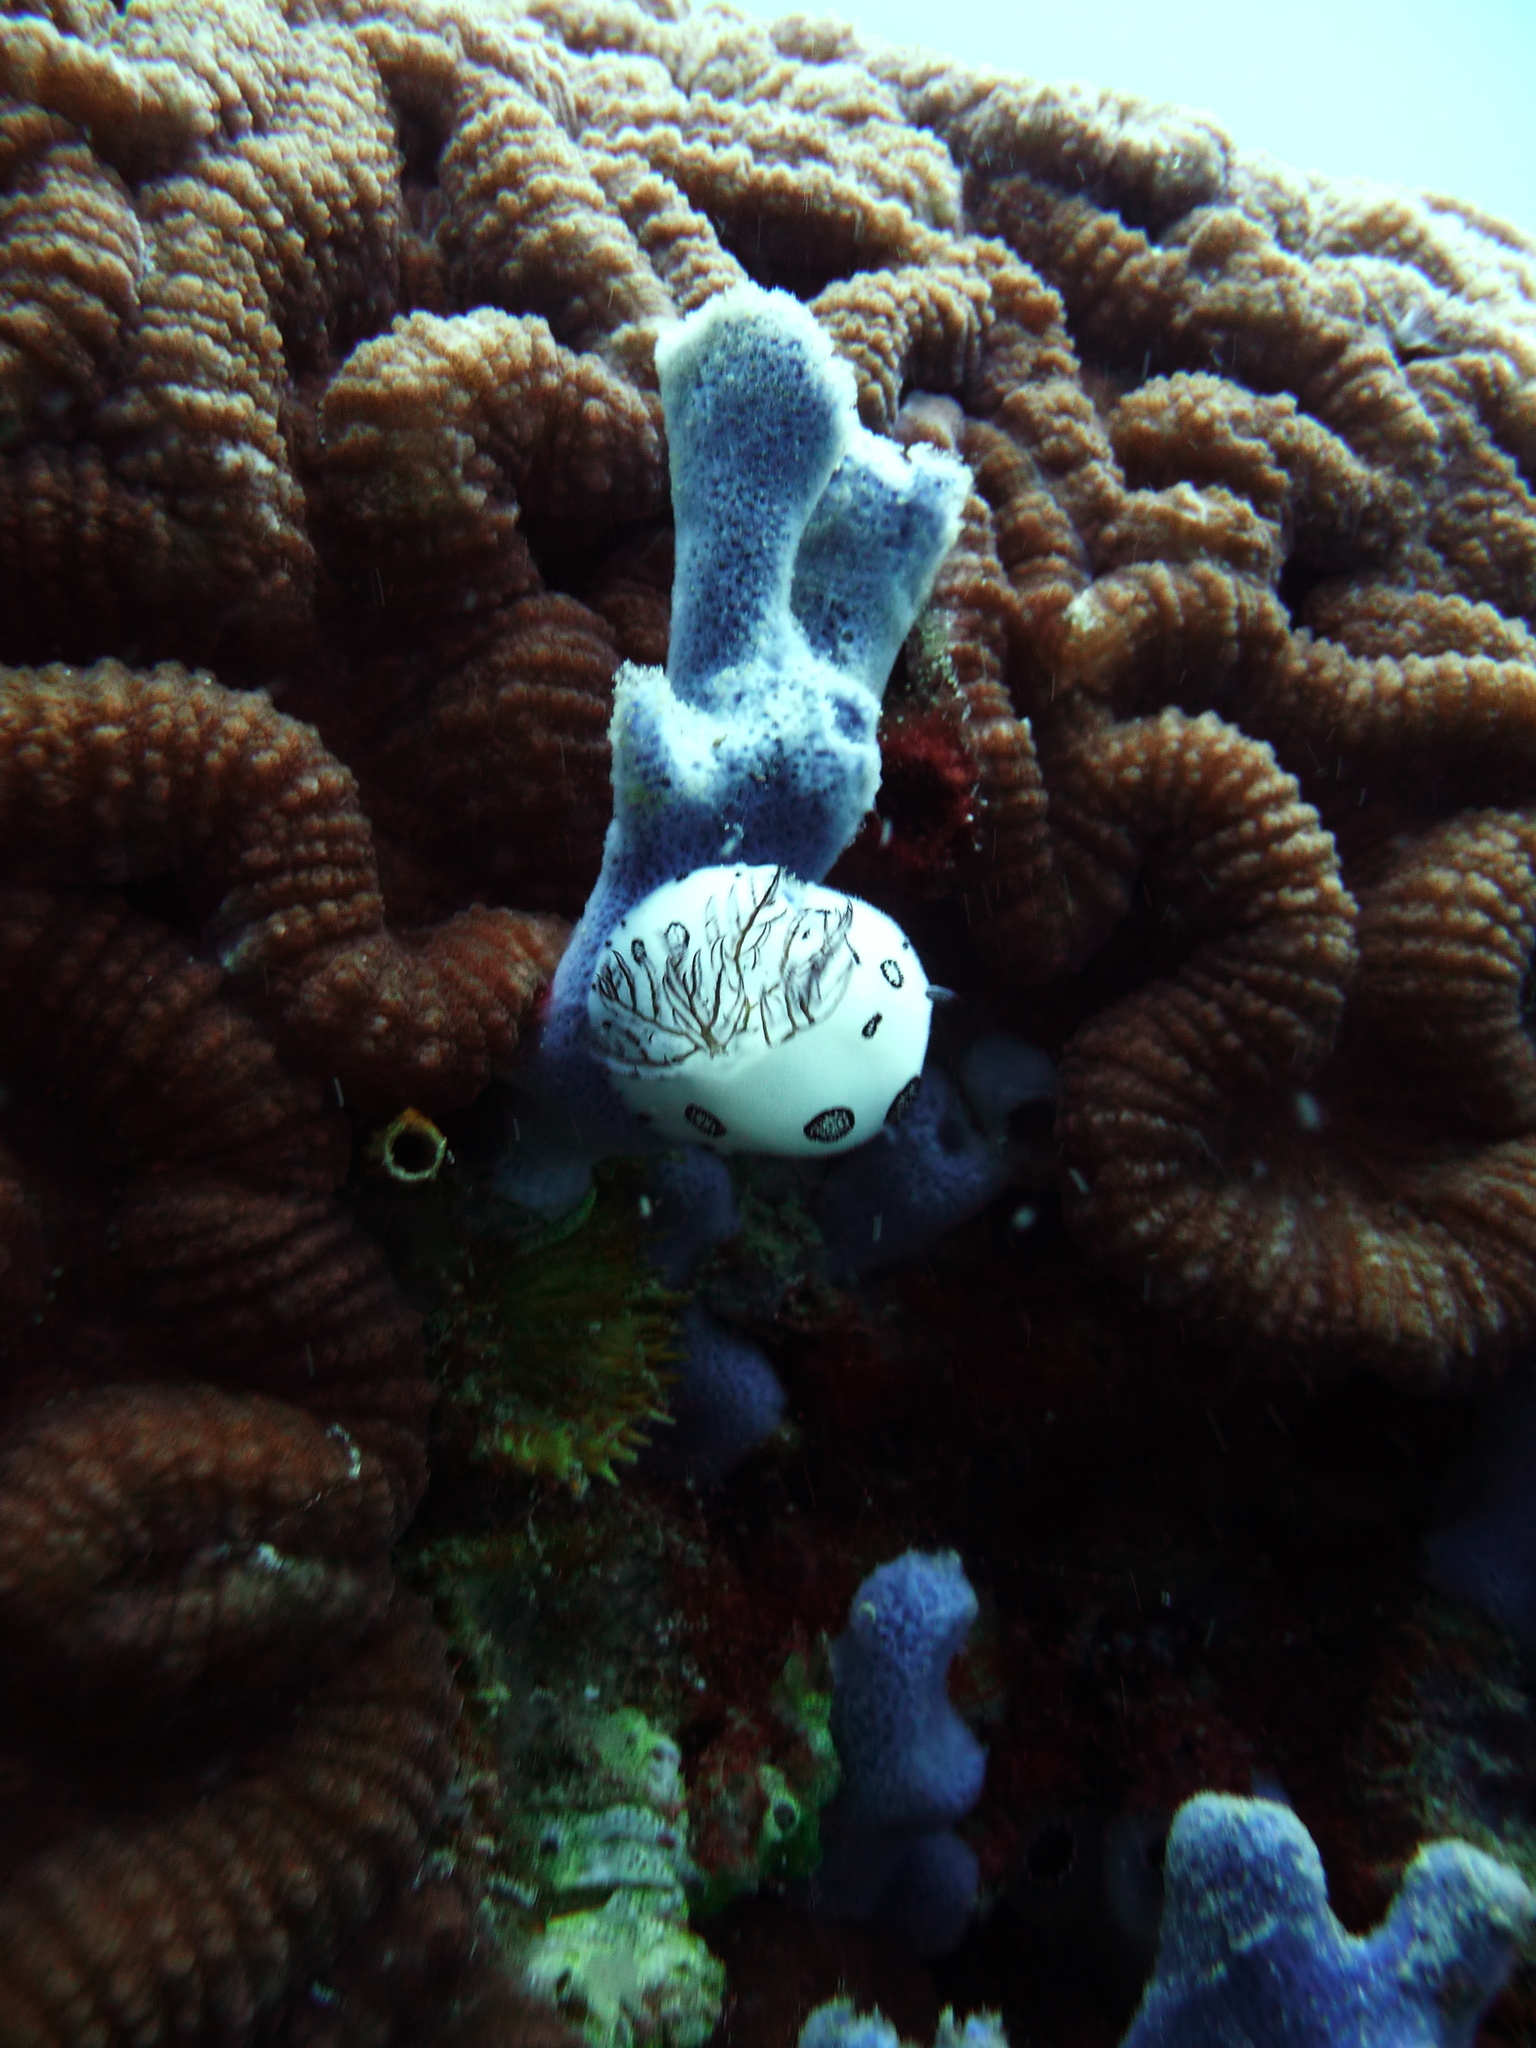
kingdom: Animalia
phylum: Mollusca
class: Gastropoda
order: Nudibranchia
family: Discodorididae
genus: Jorunna
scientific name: Jorunna funebris
